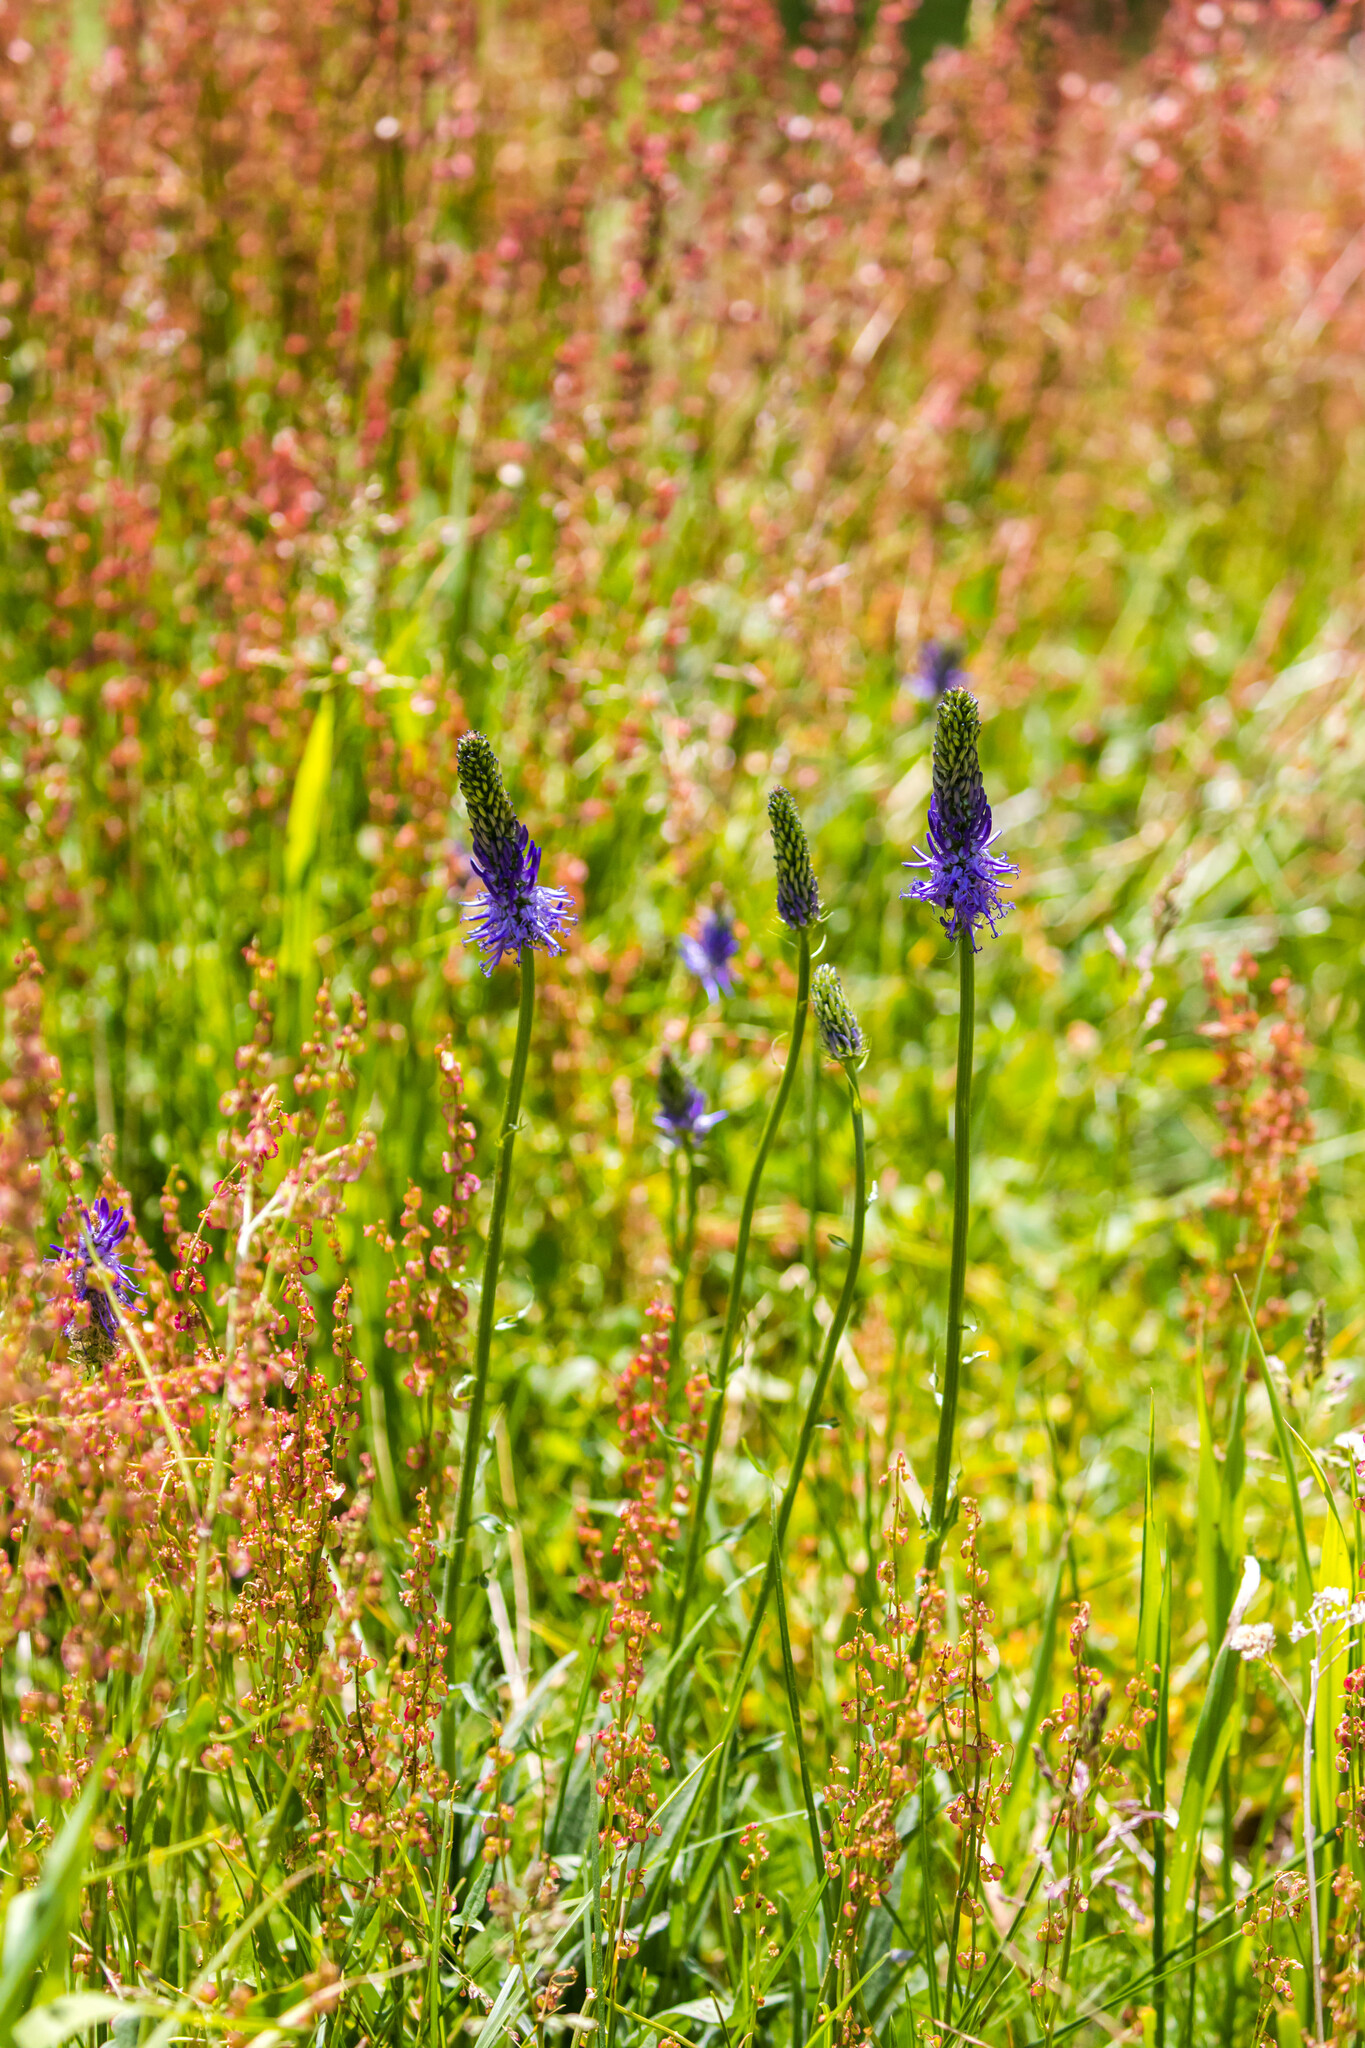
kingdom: Plantae
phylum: Tracheophyta
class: Magnoliopsida
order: Asterales
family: Campanulaceae
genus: Phyteuma
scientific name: Phyteuma betonicifolium
